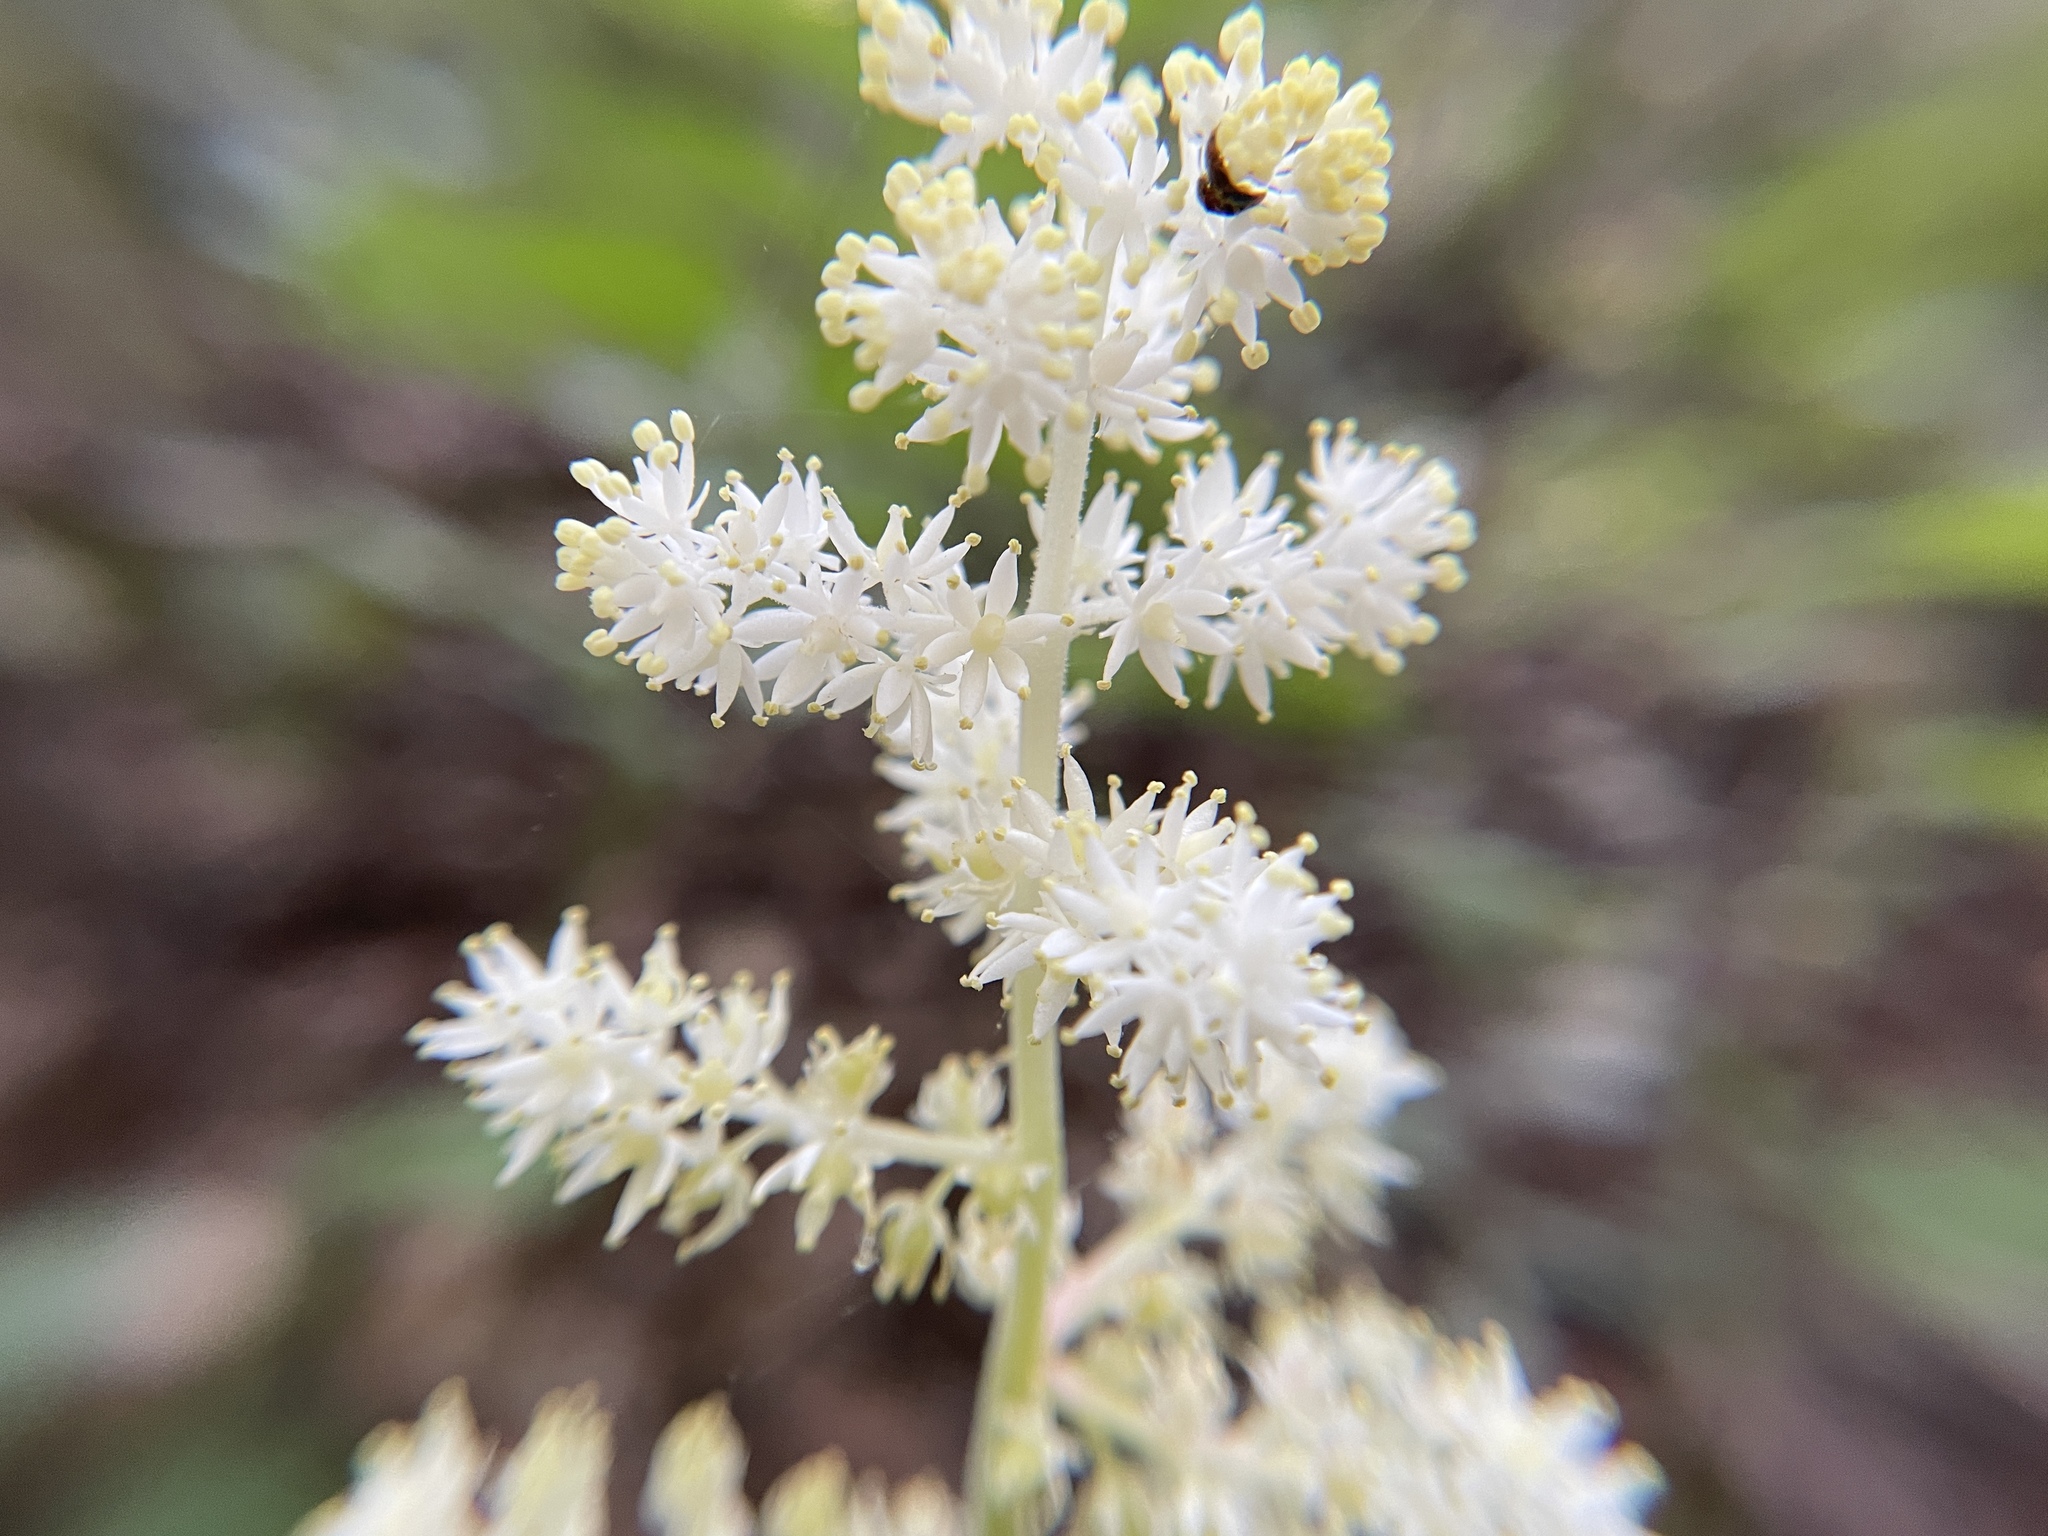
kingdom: Plantae
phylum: Tracheophyta
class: Liliopsida
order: Asparagales
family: Asparagaceae
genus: Maianthemum
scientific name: Maianthemum racemosum
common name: False spikenard
